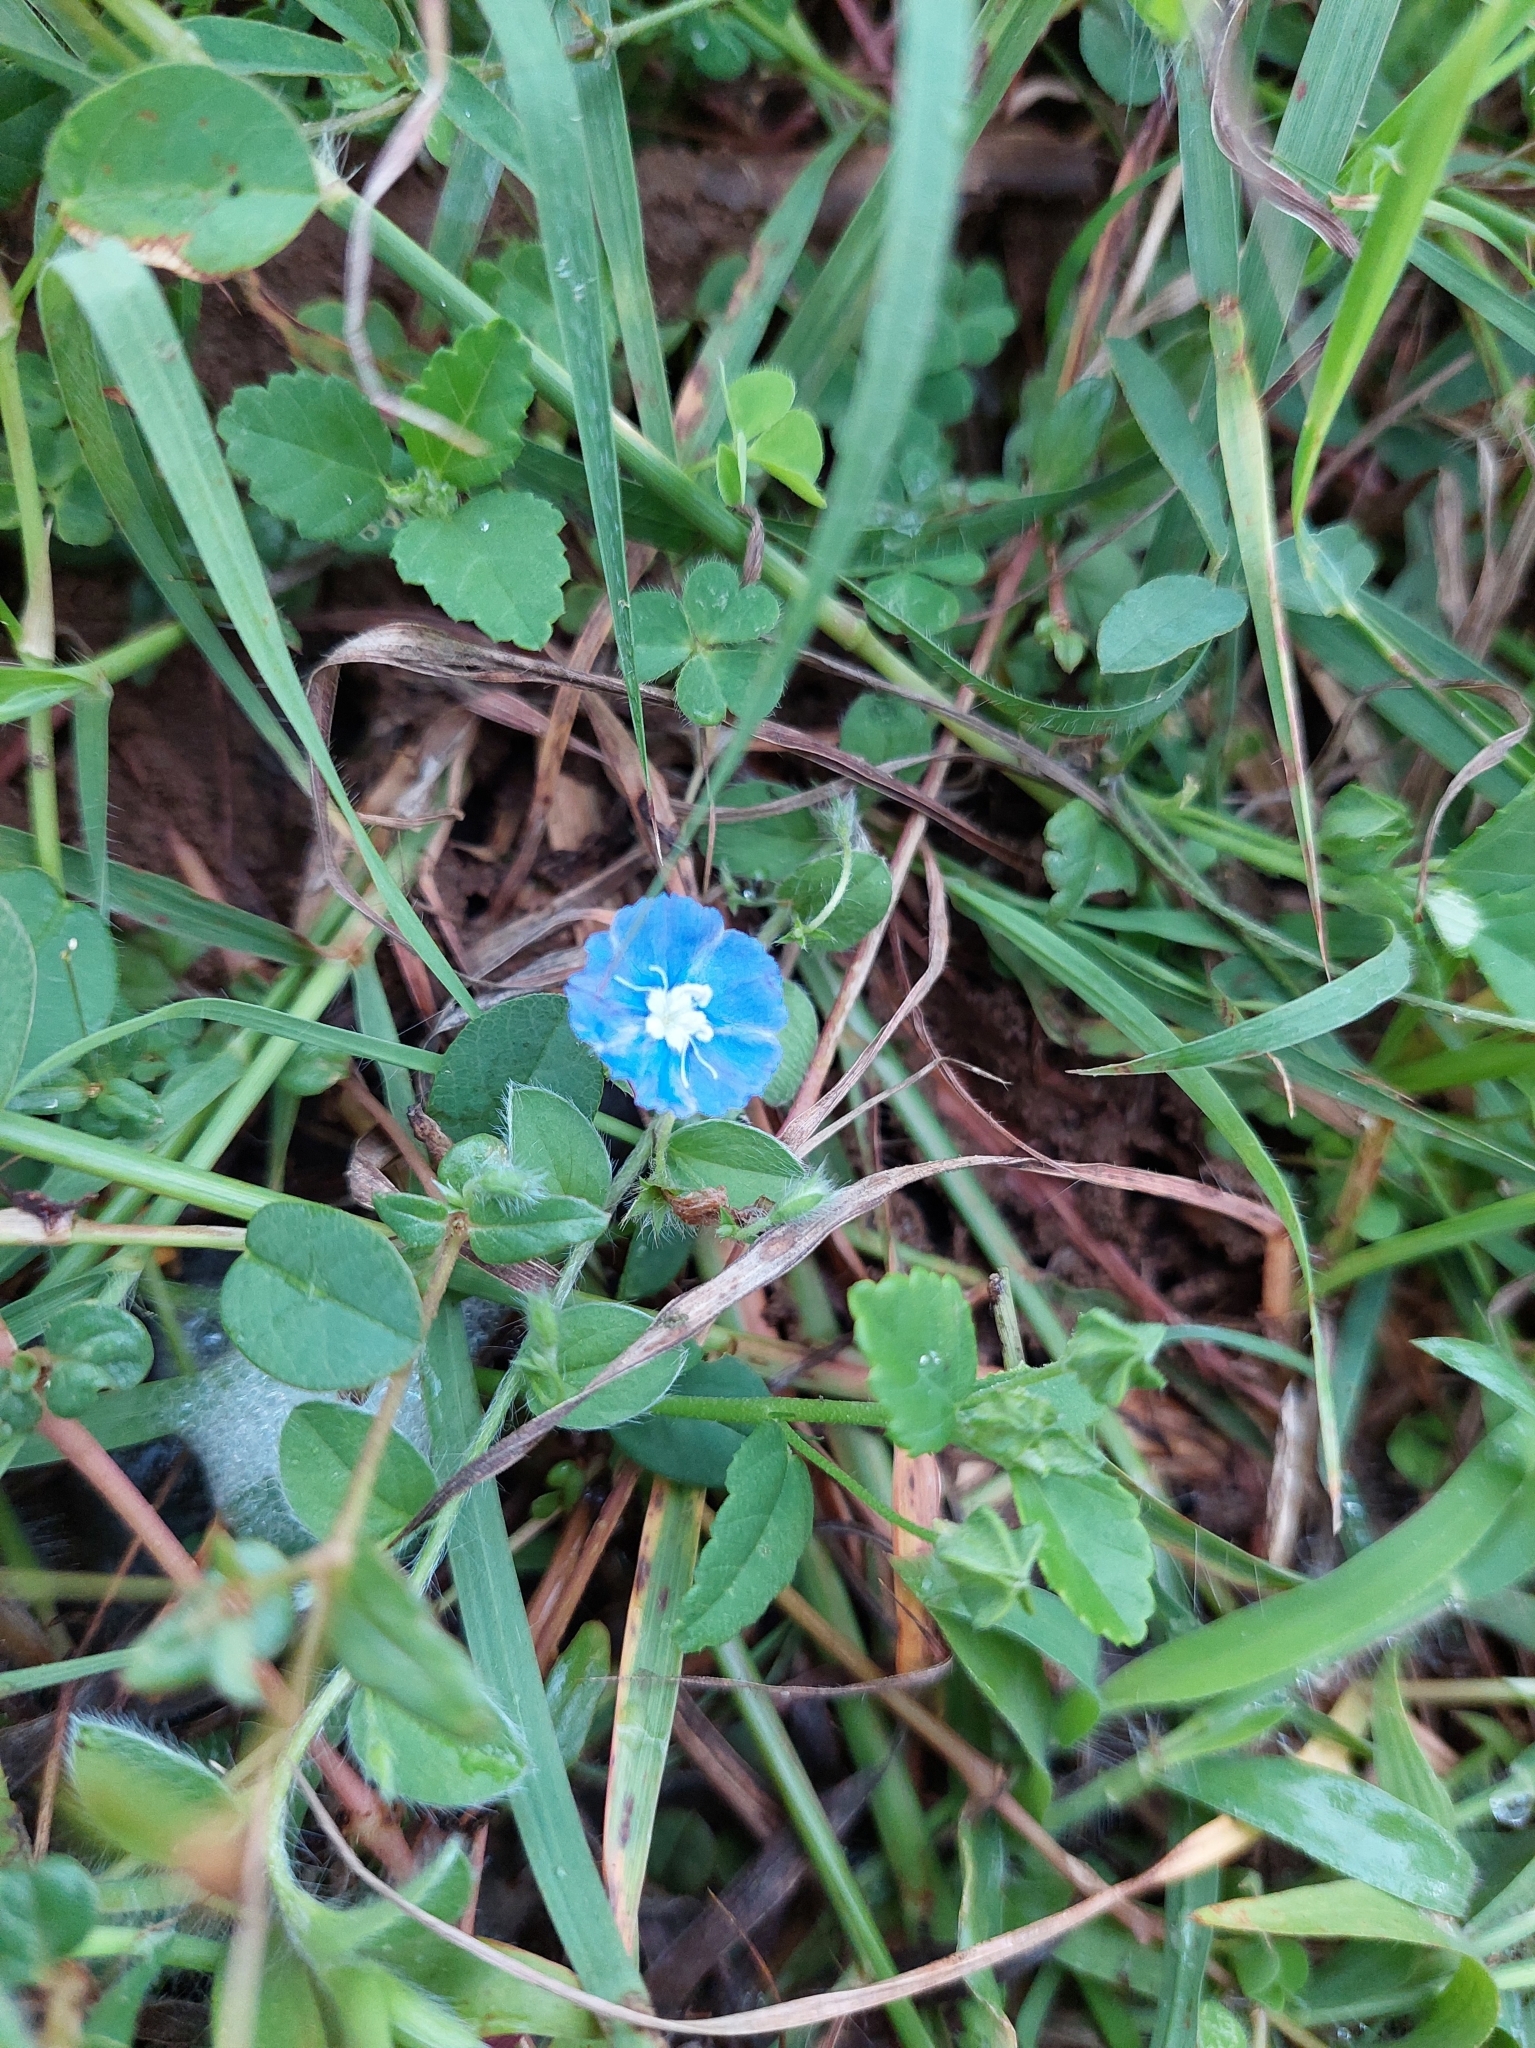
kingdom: Plantae
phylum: Tracheophyta
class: Magnoliopsida
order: Solanales
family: Convolvulaceae
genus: Evolvulus
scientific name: Evolvulus alsinoides
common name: Slender dwarf morning-glory
